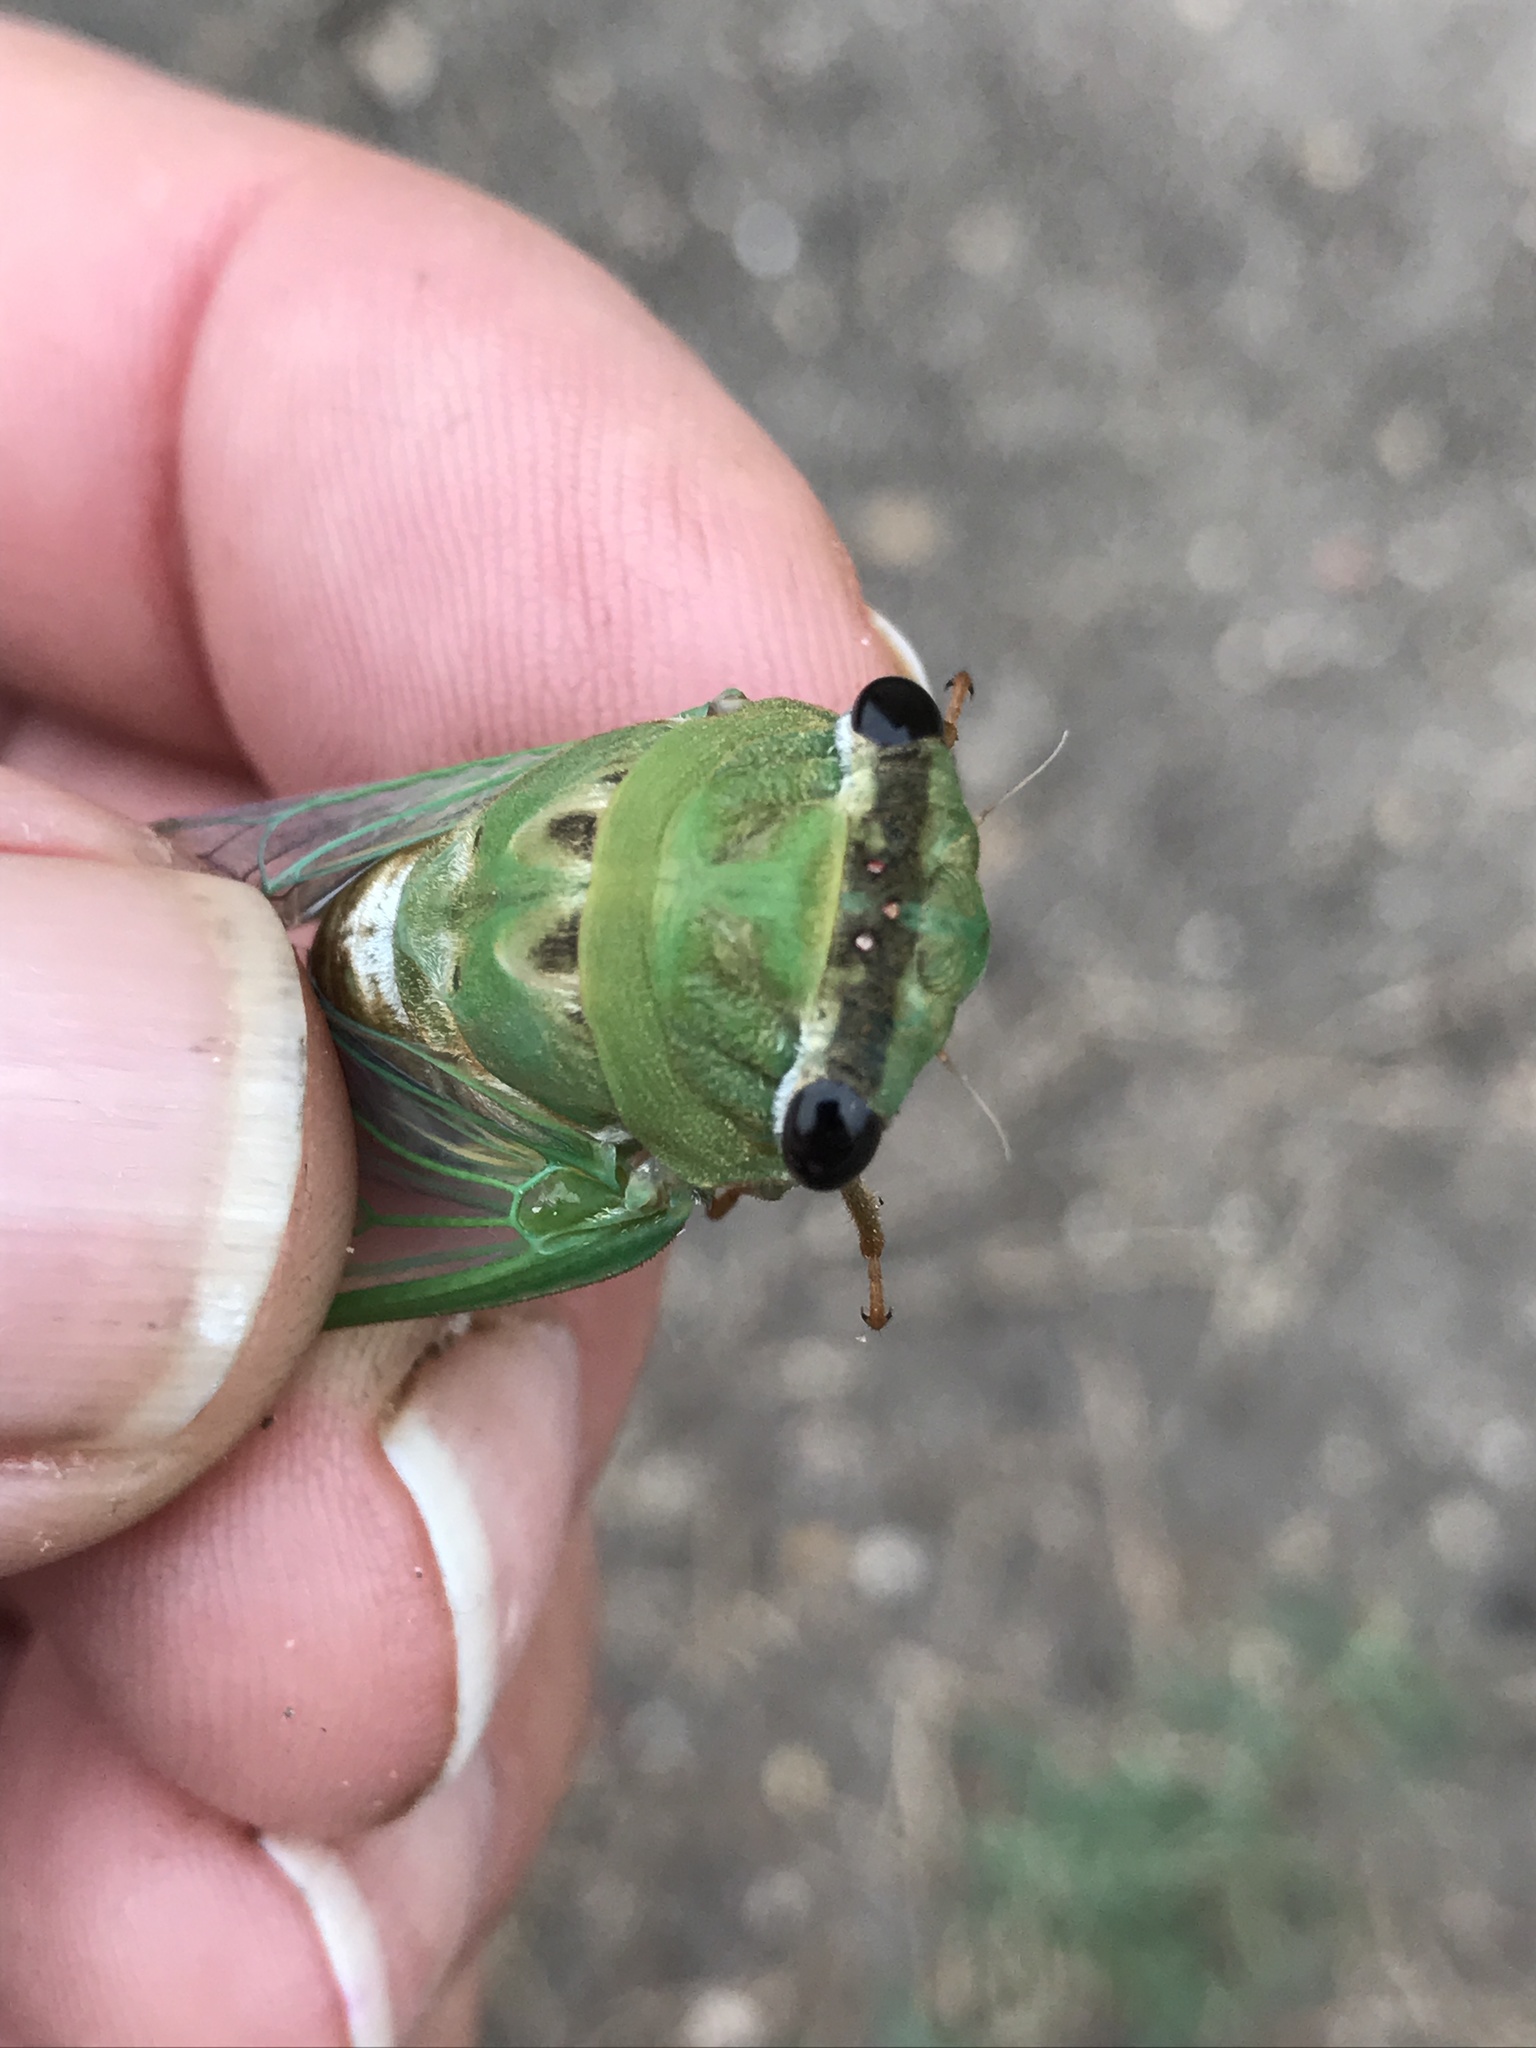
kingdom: Animalia
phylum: Arthropoda
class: Insecta
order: Hemiptera
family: Cicadidae
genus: Neotibicen
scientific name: Neotibicen superbus
